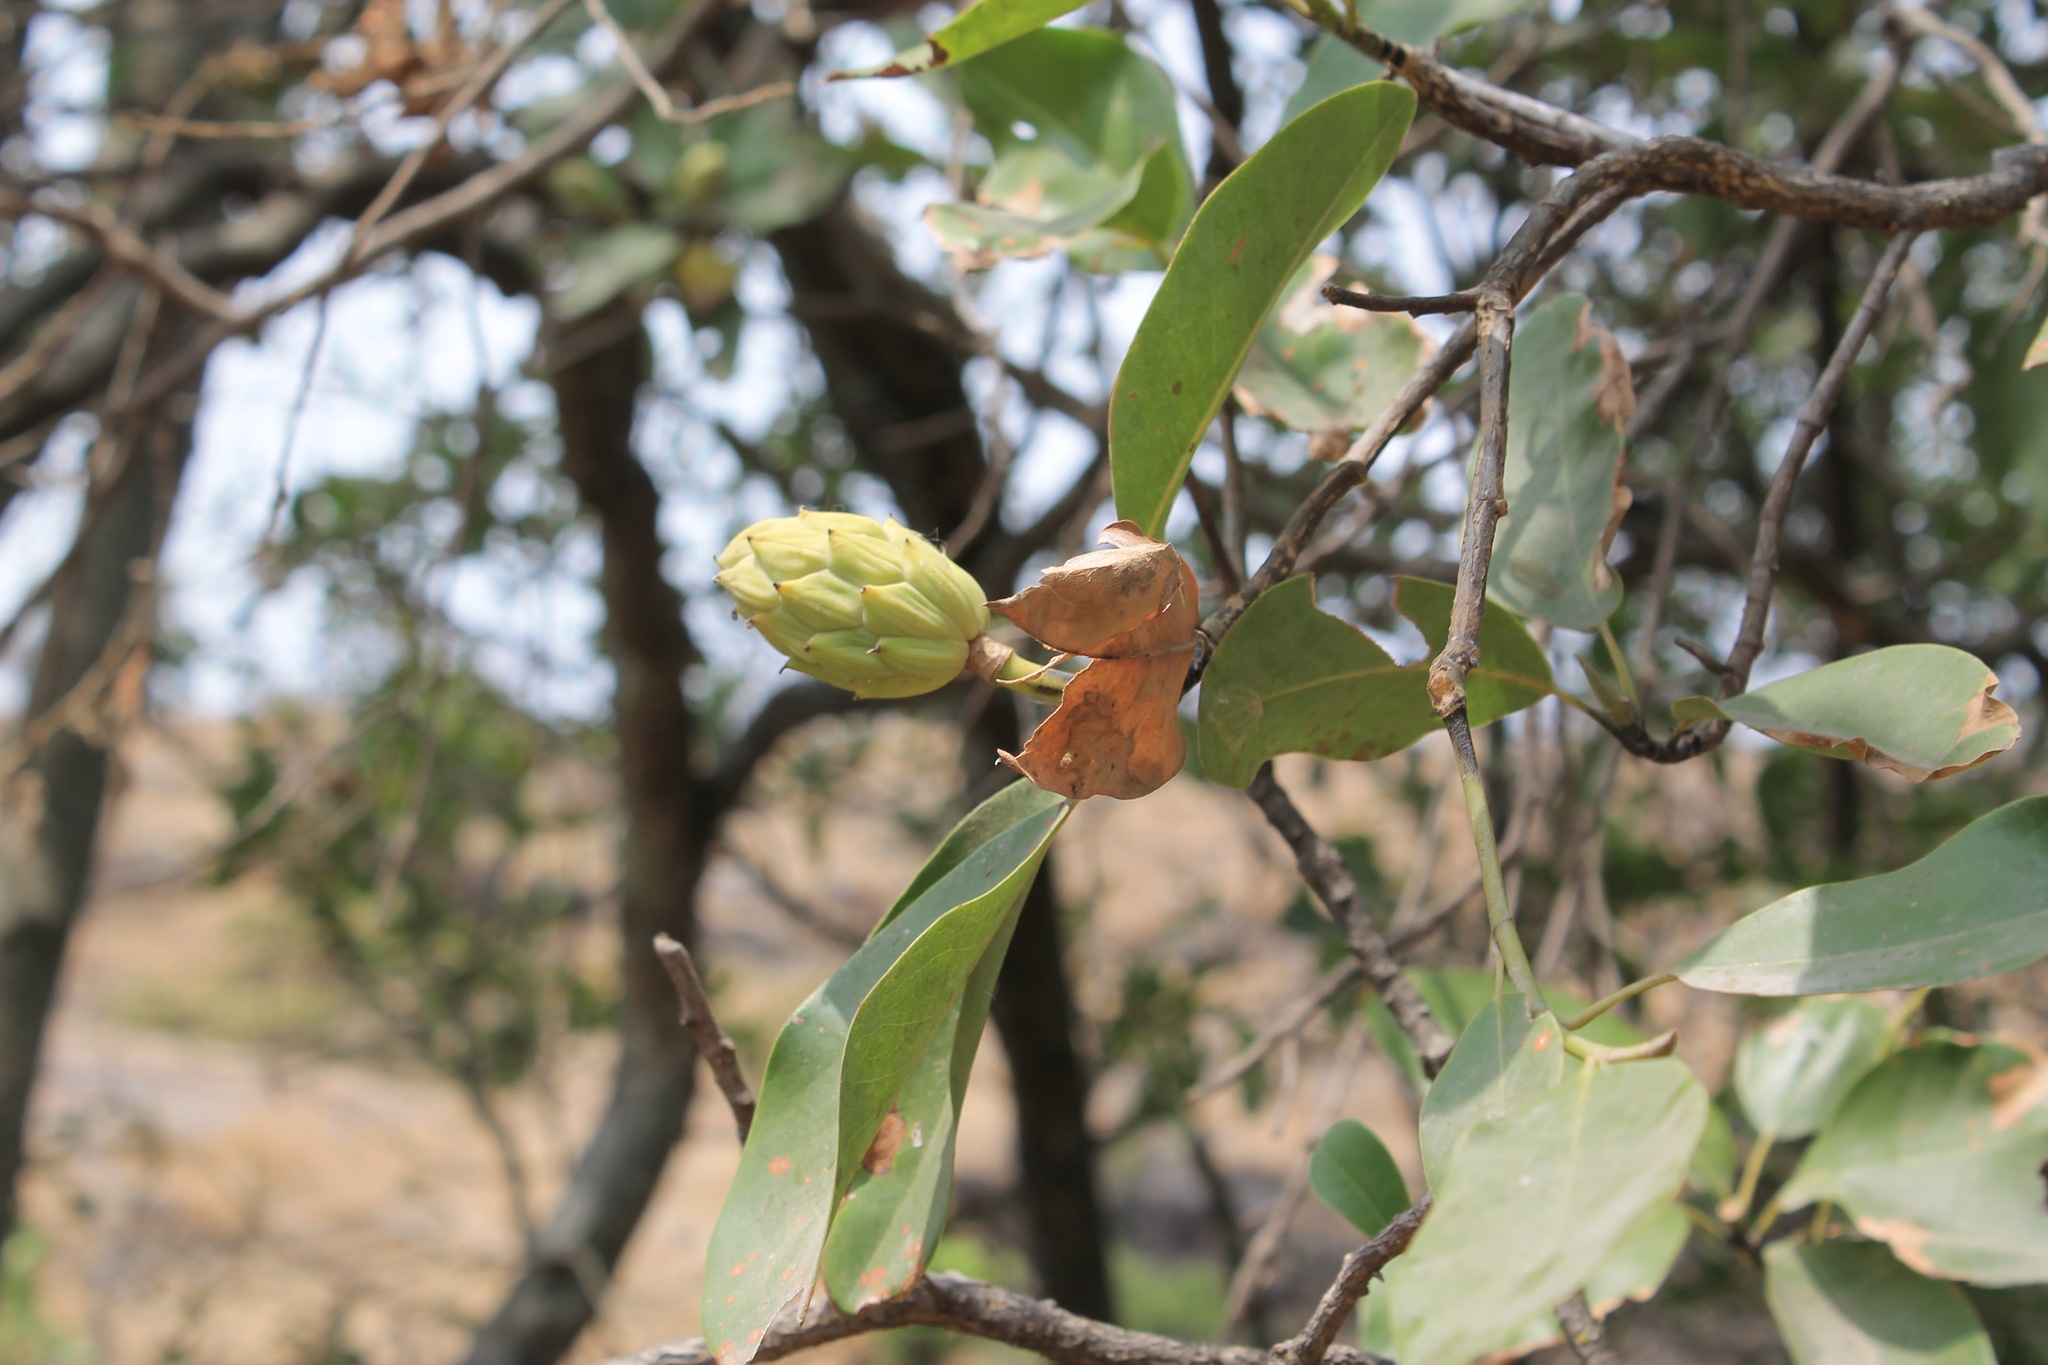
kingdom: Plantae
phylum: Tracheophyta
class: Magnoliopsida
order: Magnoliales
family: Magnoliaceae
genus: Magnolia
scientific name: Magnolia pugana
